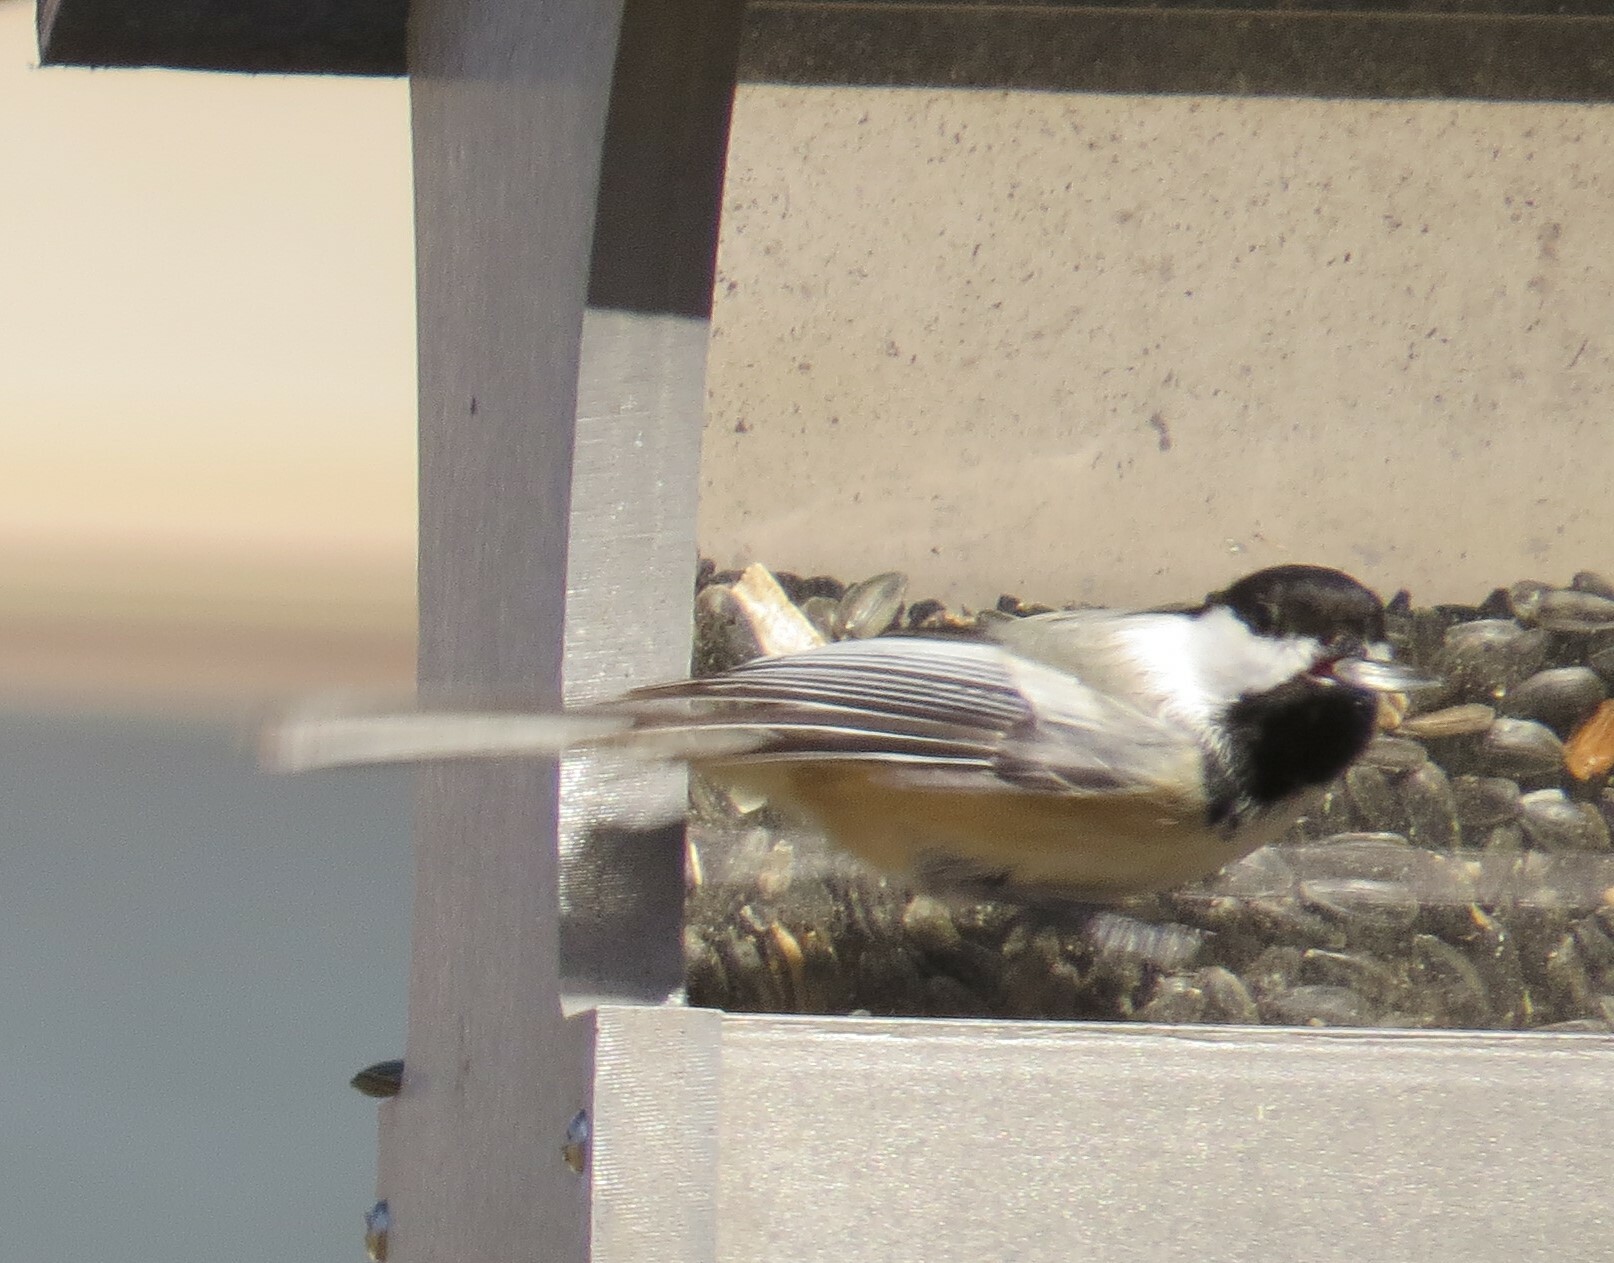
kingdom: Animalia
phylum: Chordata
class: Aves
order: Passeriformes
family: Paridae
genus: Poecile
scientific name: Poecile atricapillus
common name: Black-capped chickadee
